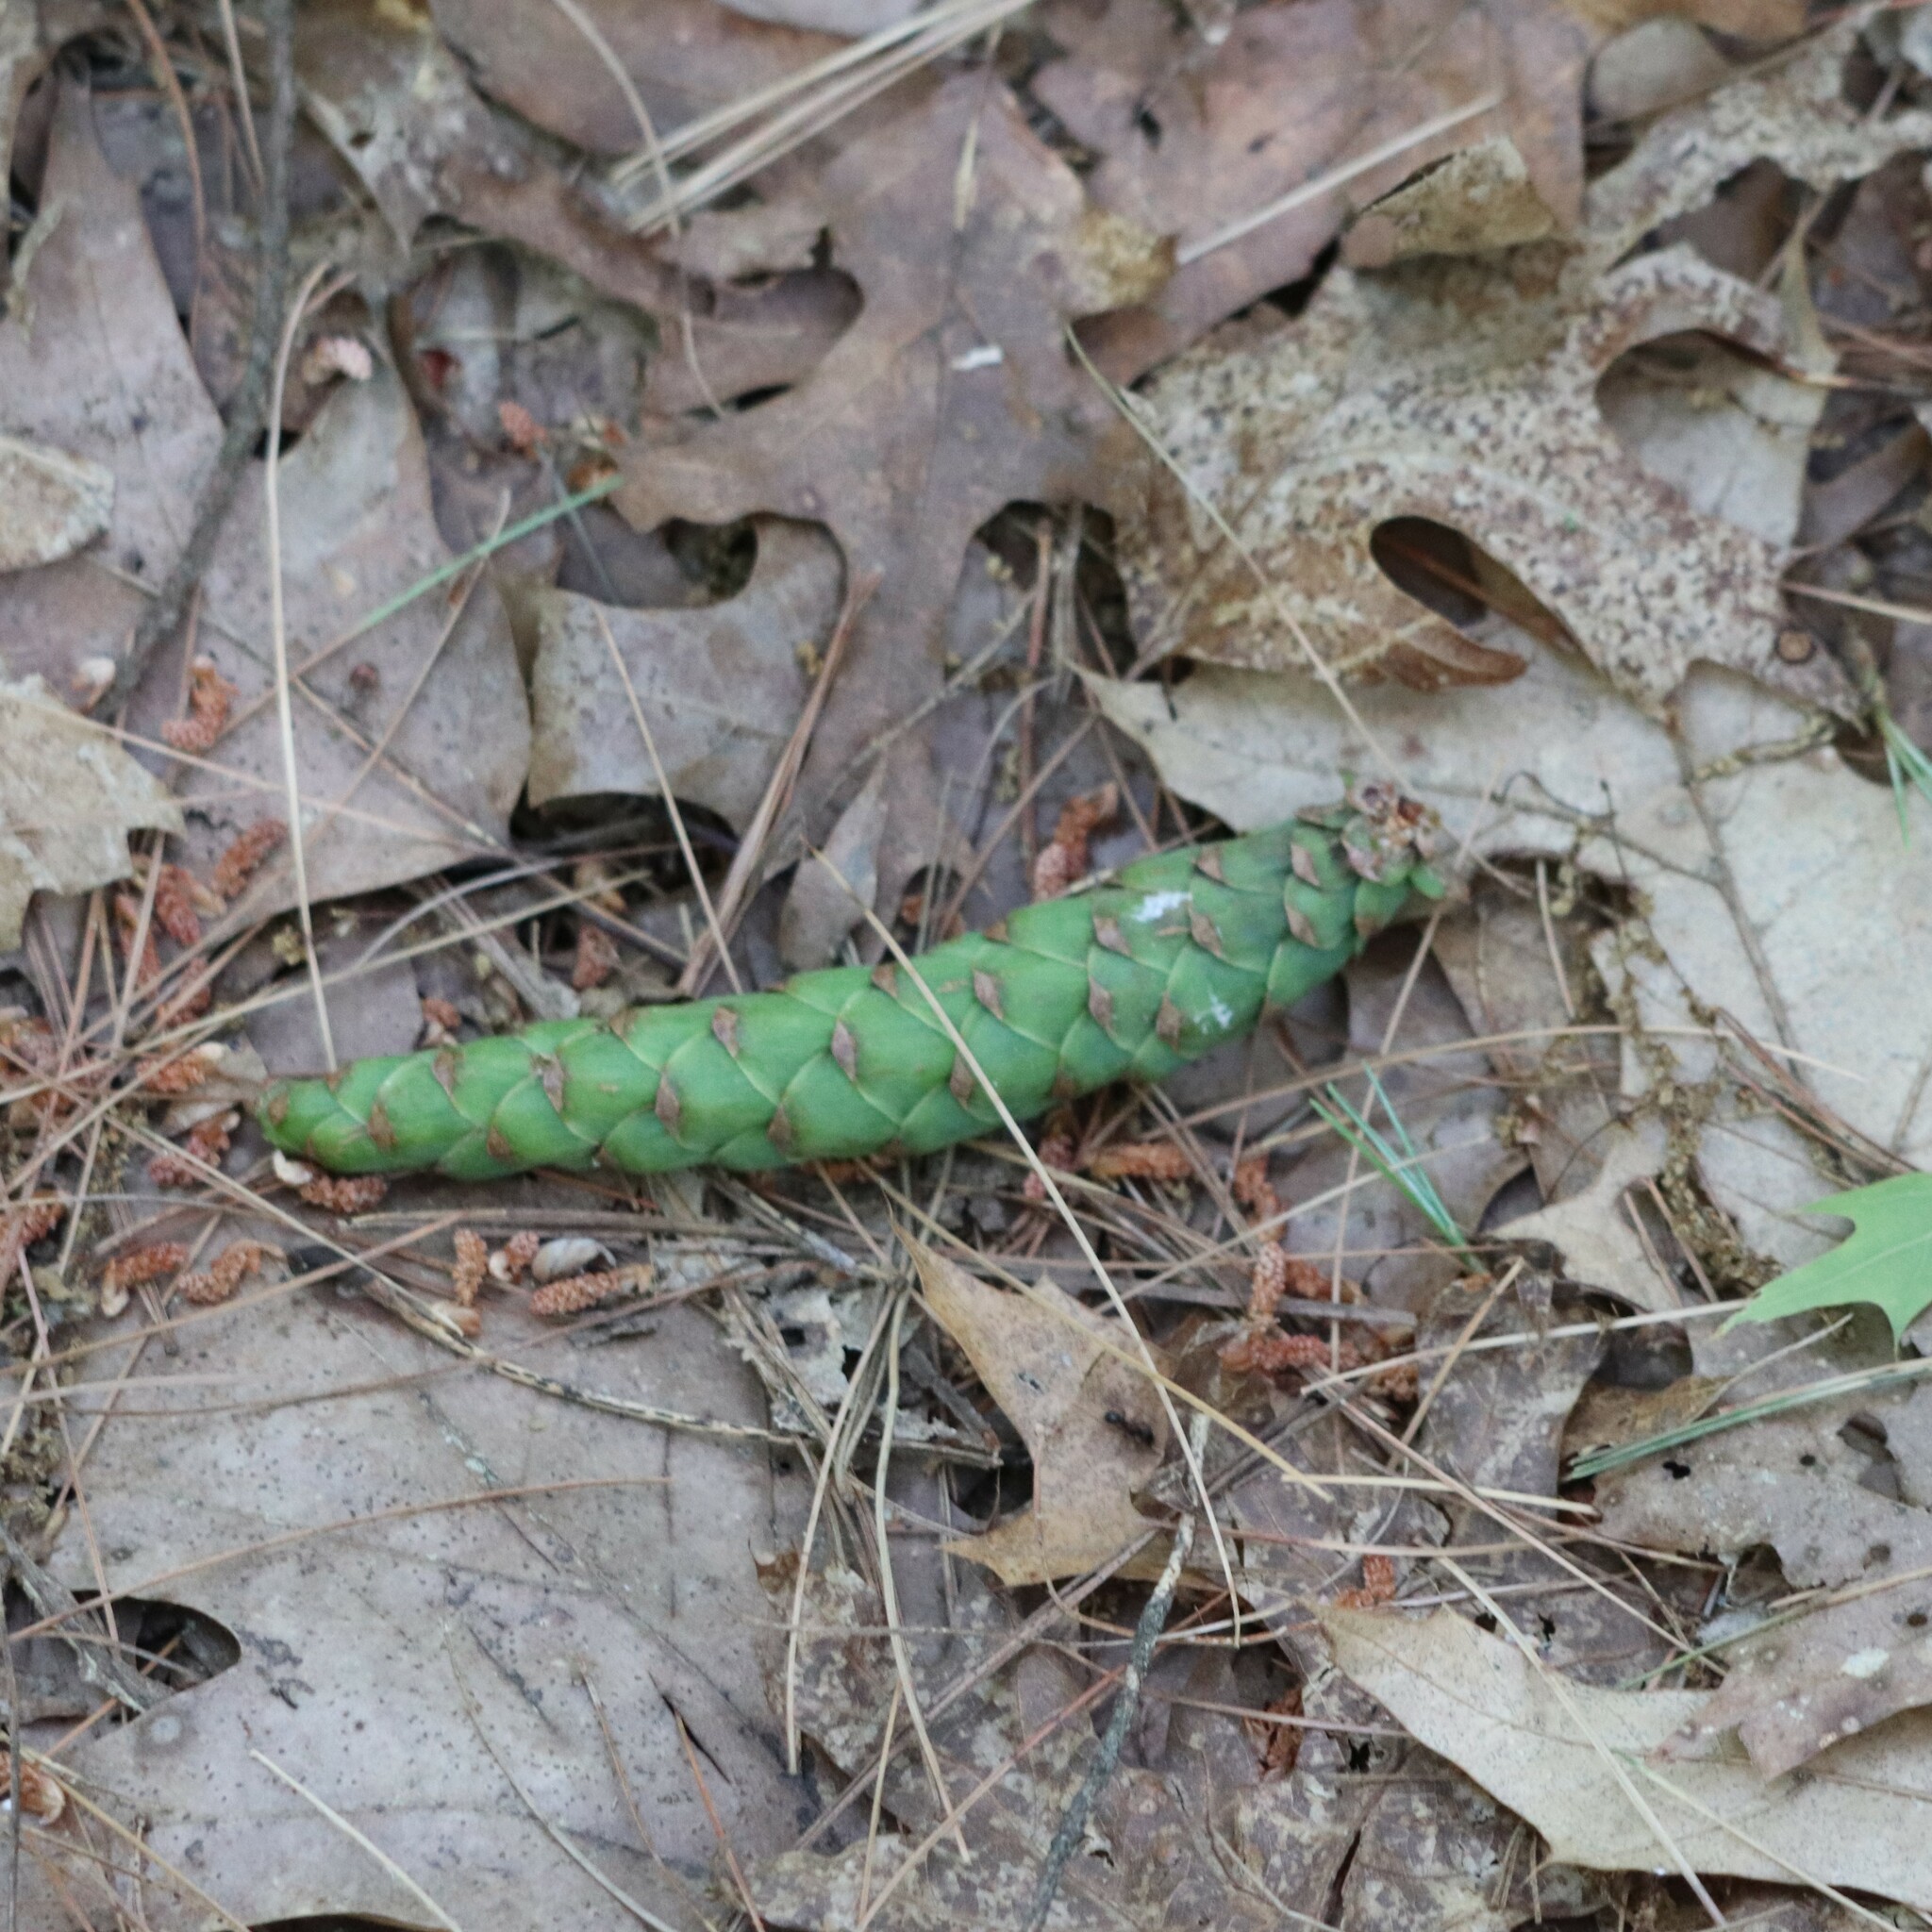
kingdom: Plantae
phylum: Tracheophyta
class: Pinopsida
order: Pinales
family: Pinaceae
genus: Pinus
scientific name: Pinus strobus
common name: Weymouth pine
